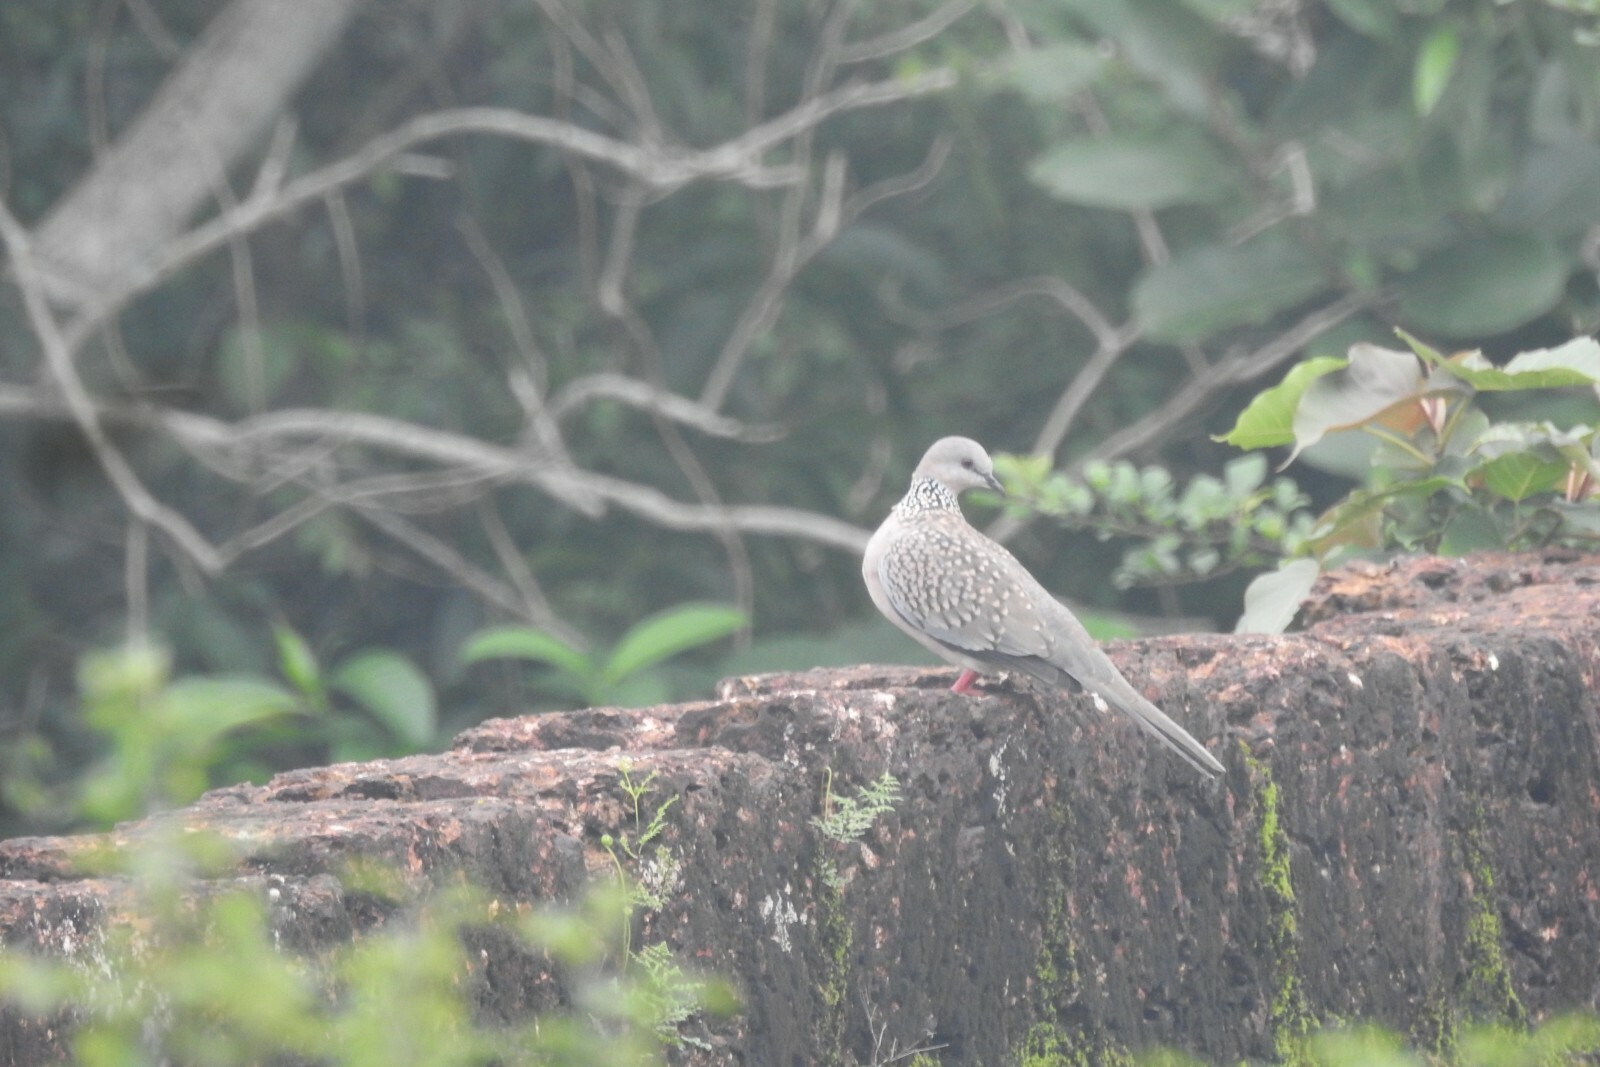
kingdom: Animalia
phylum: Chordata
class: Aves
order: Columbiformes
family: Columbidae
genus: Spilopelia
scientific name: Spilopelia chinensis
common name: Spotted dove
